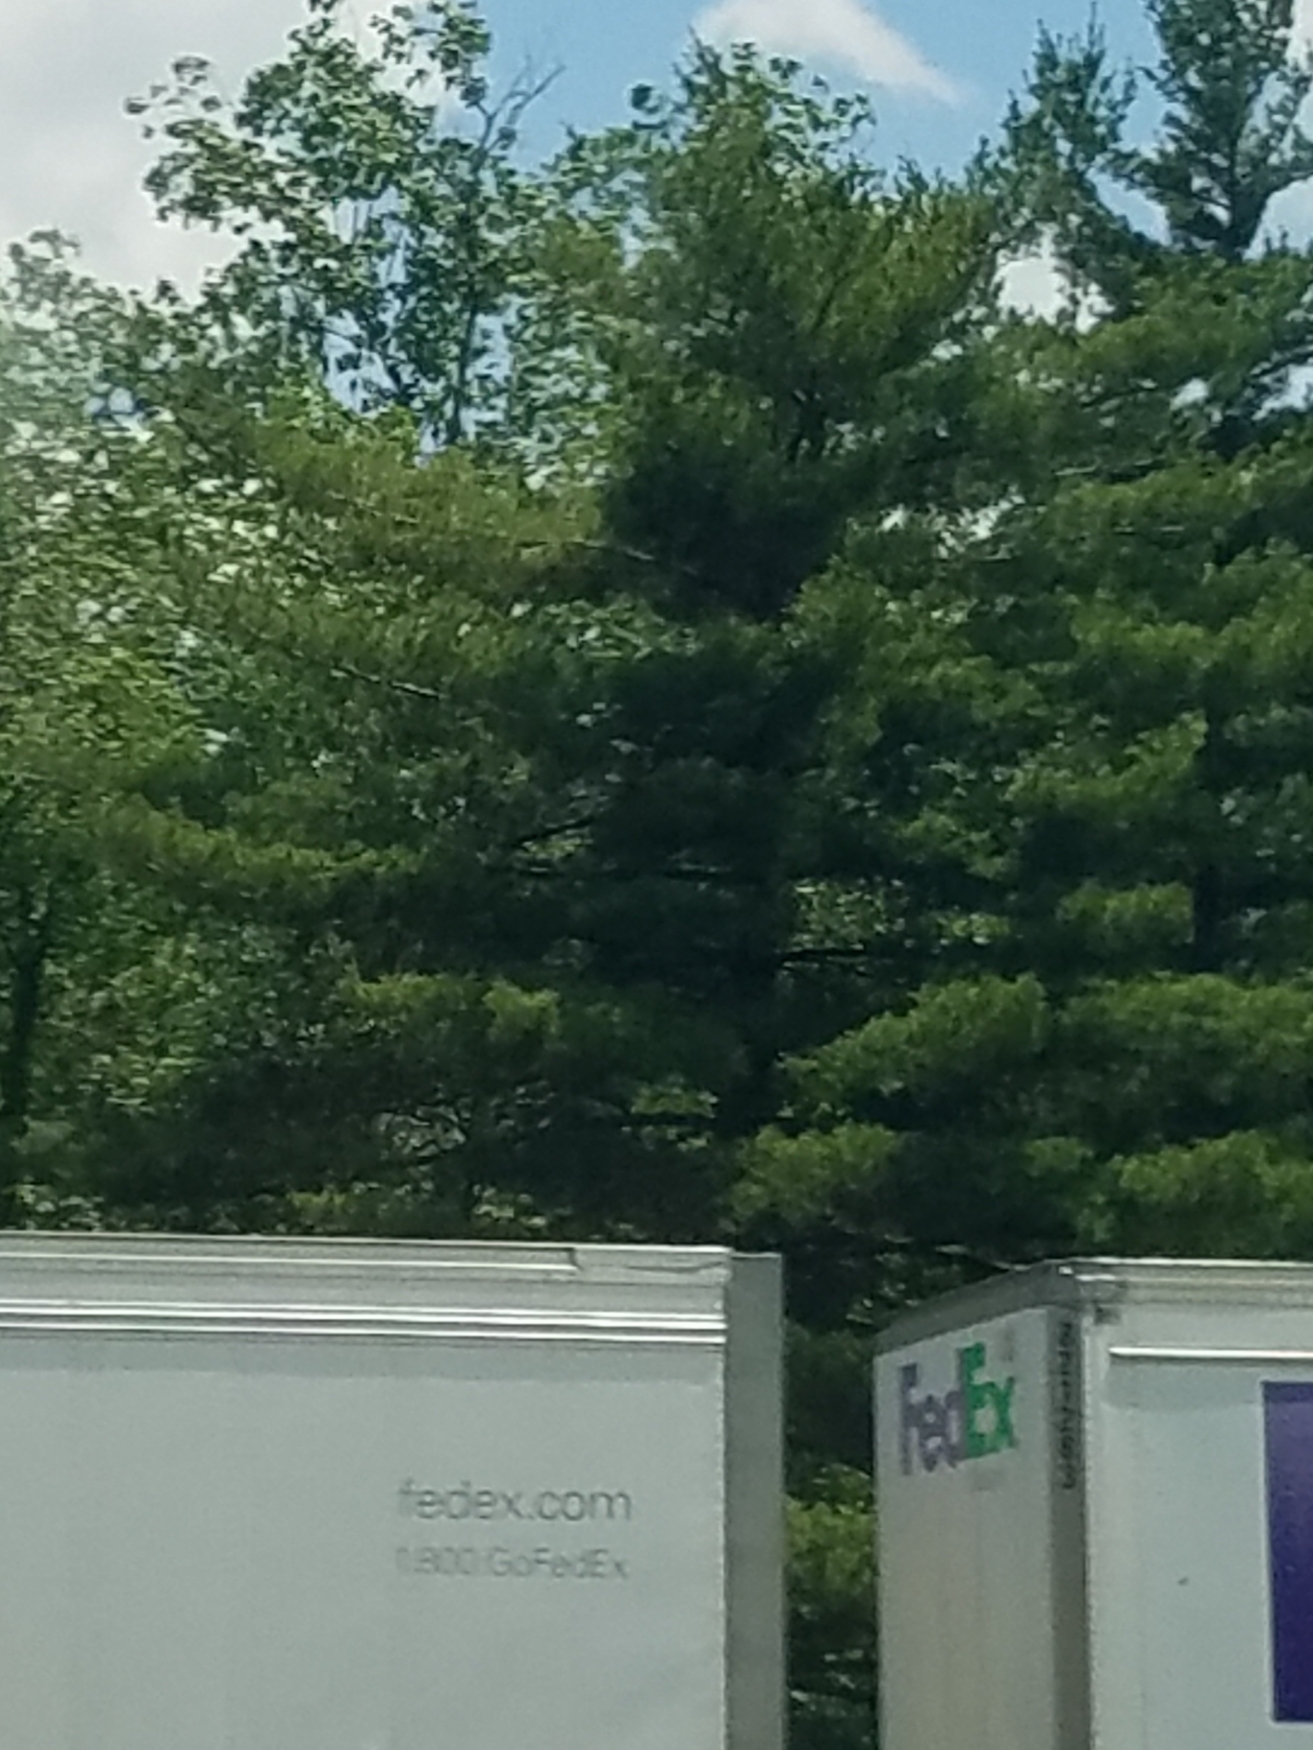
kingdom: Plantae
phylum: Tracheophyta
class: Pinopsida
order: Pinales
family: Pinaceae
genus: Pinus
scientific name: Pinus strobus
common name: Weymouth pine
